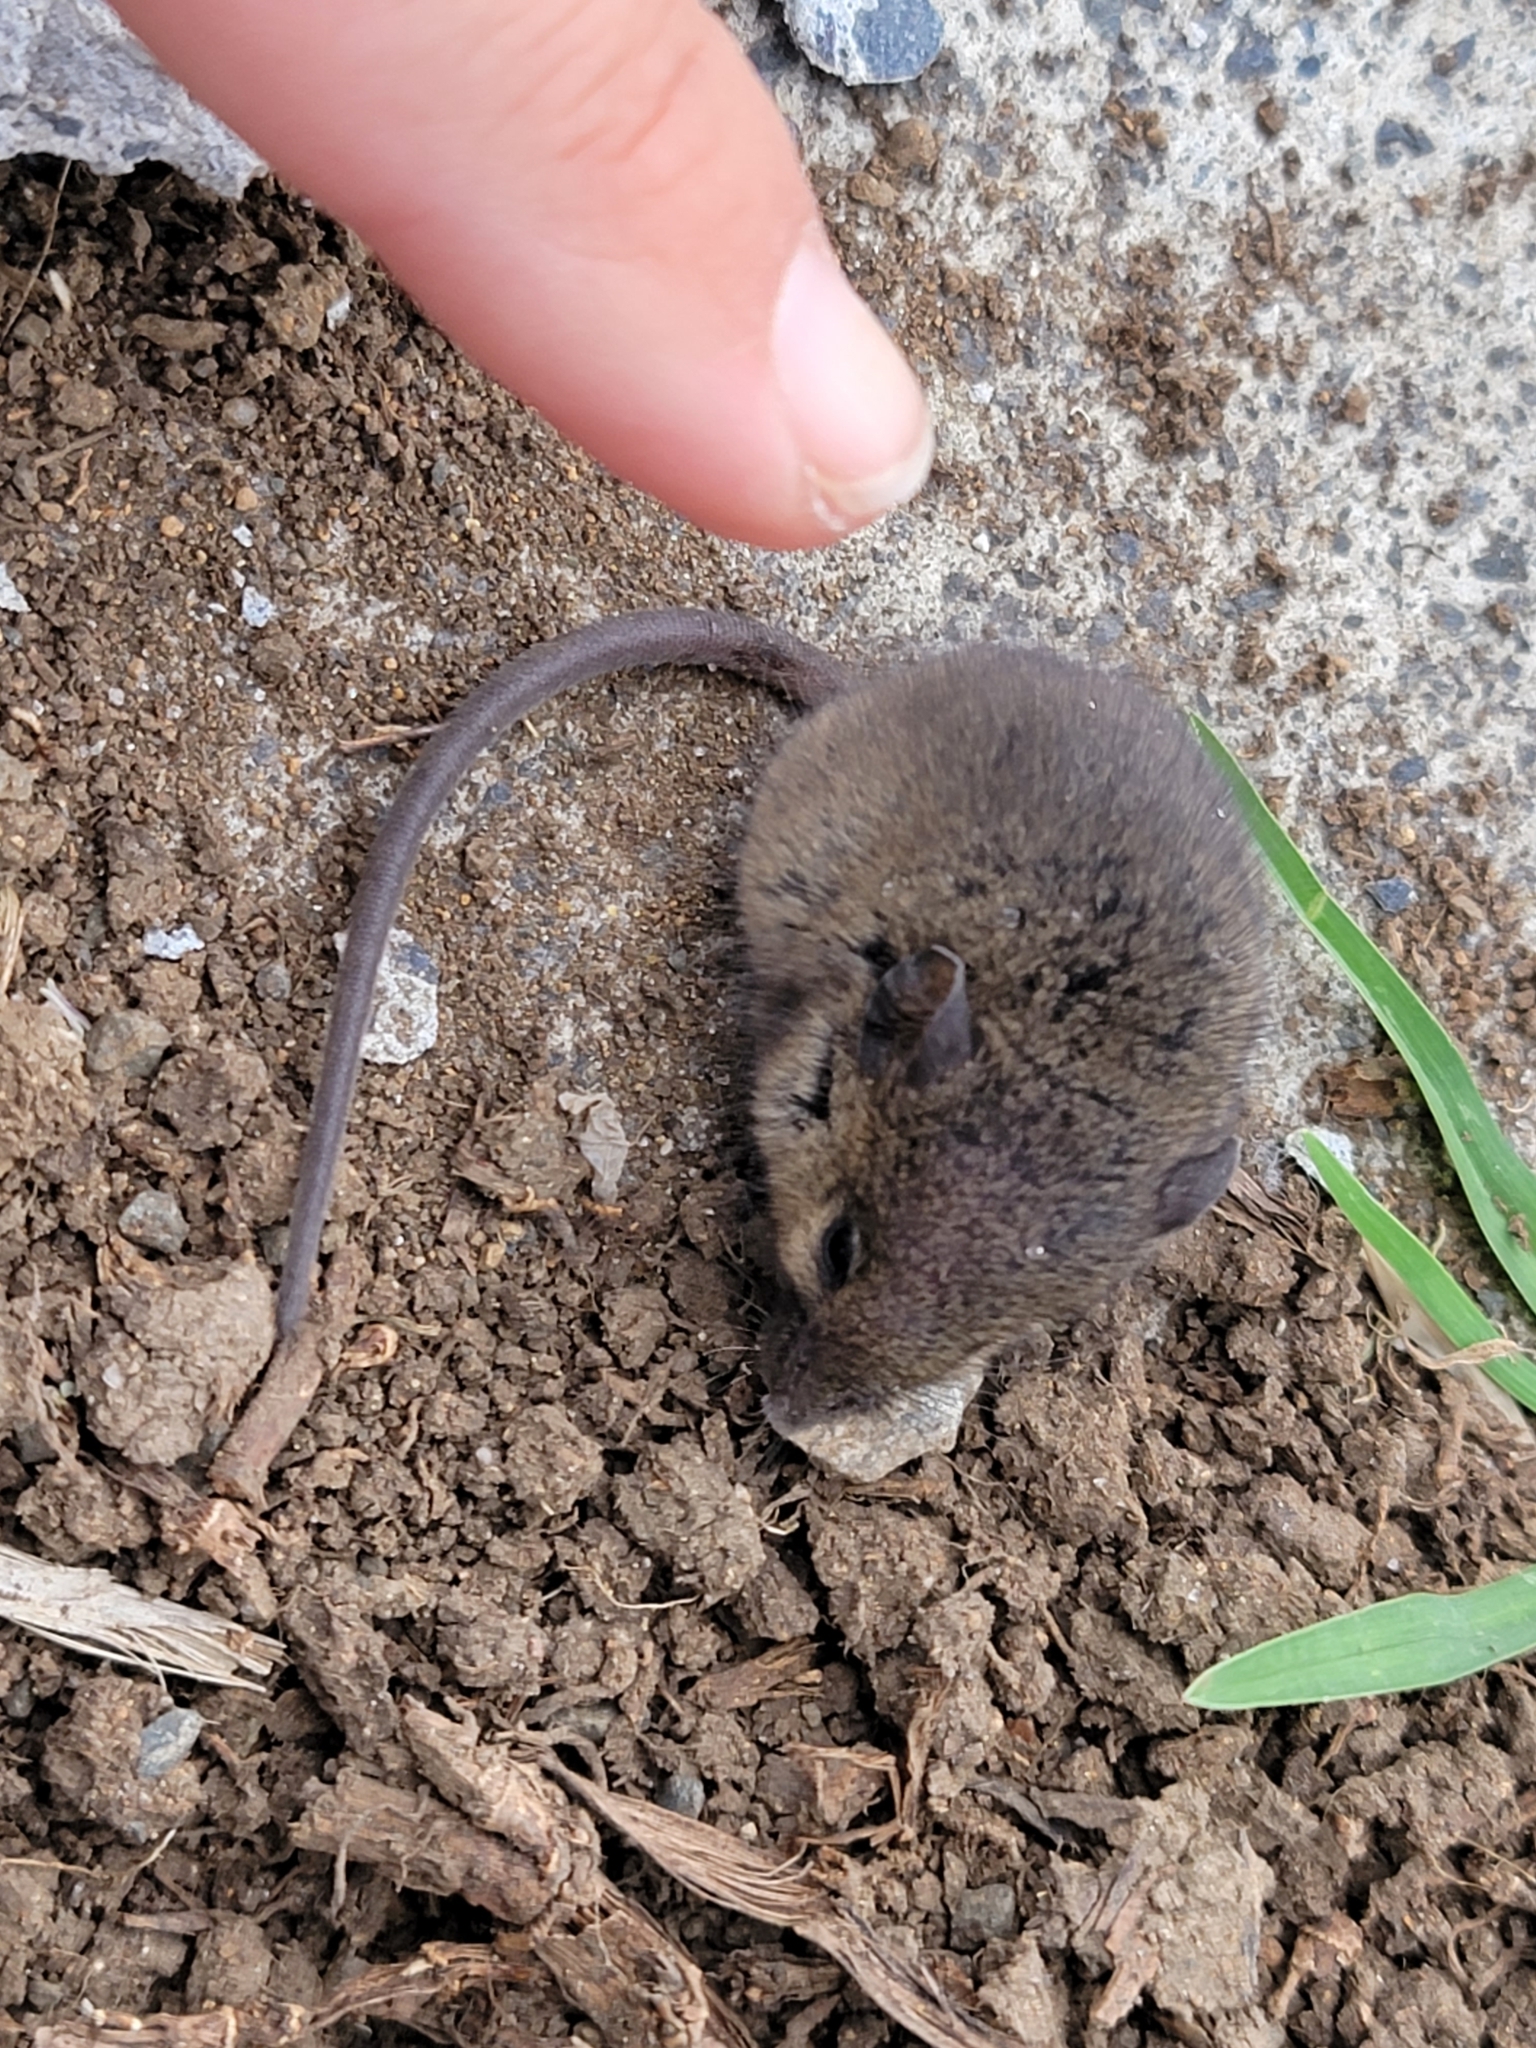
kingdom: Animalia
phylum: Chordata
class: Mammalia
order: Rodentia
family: Muridae
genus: Mus
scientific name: Mus musculus
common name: House mouse
